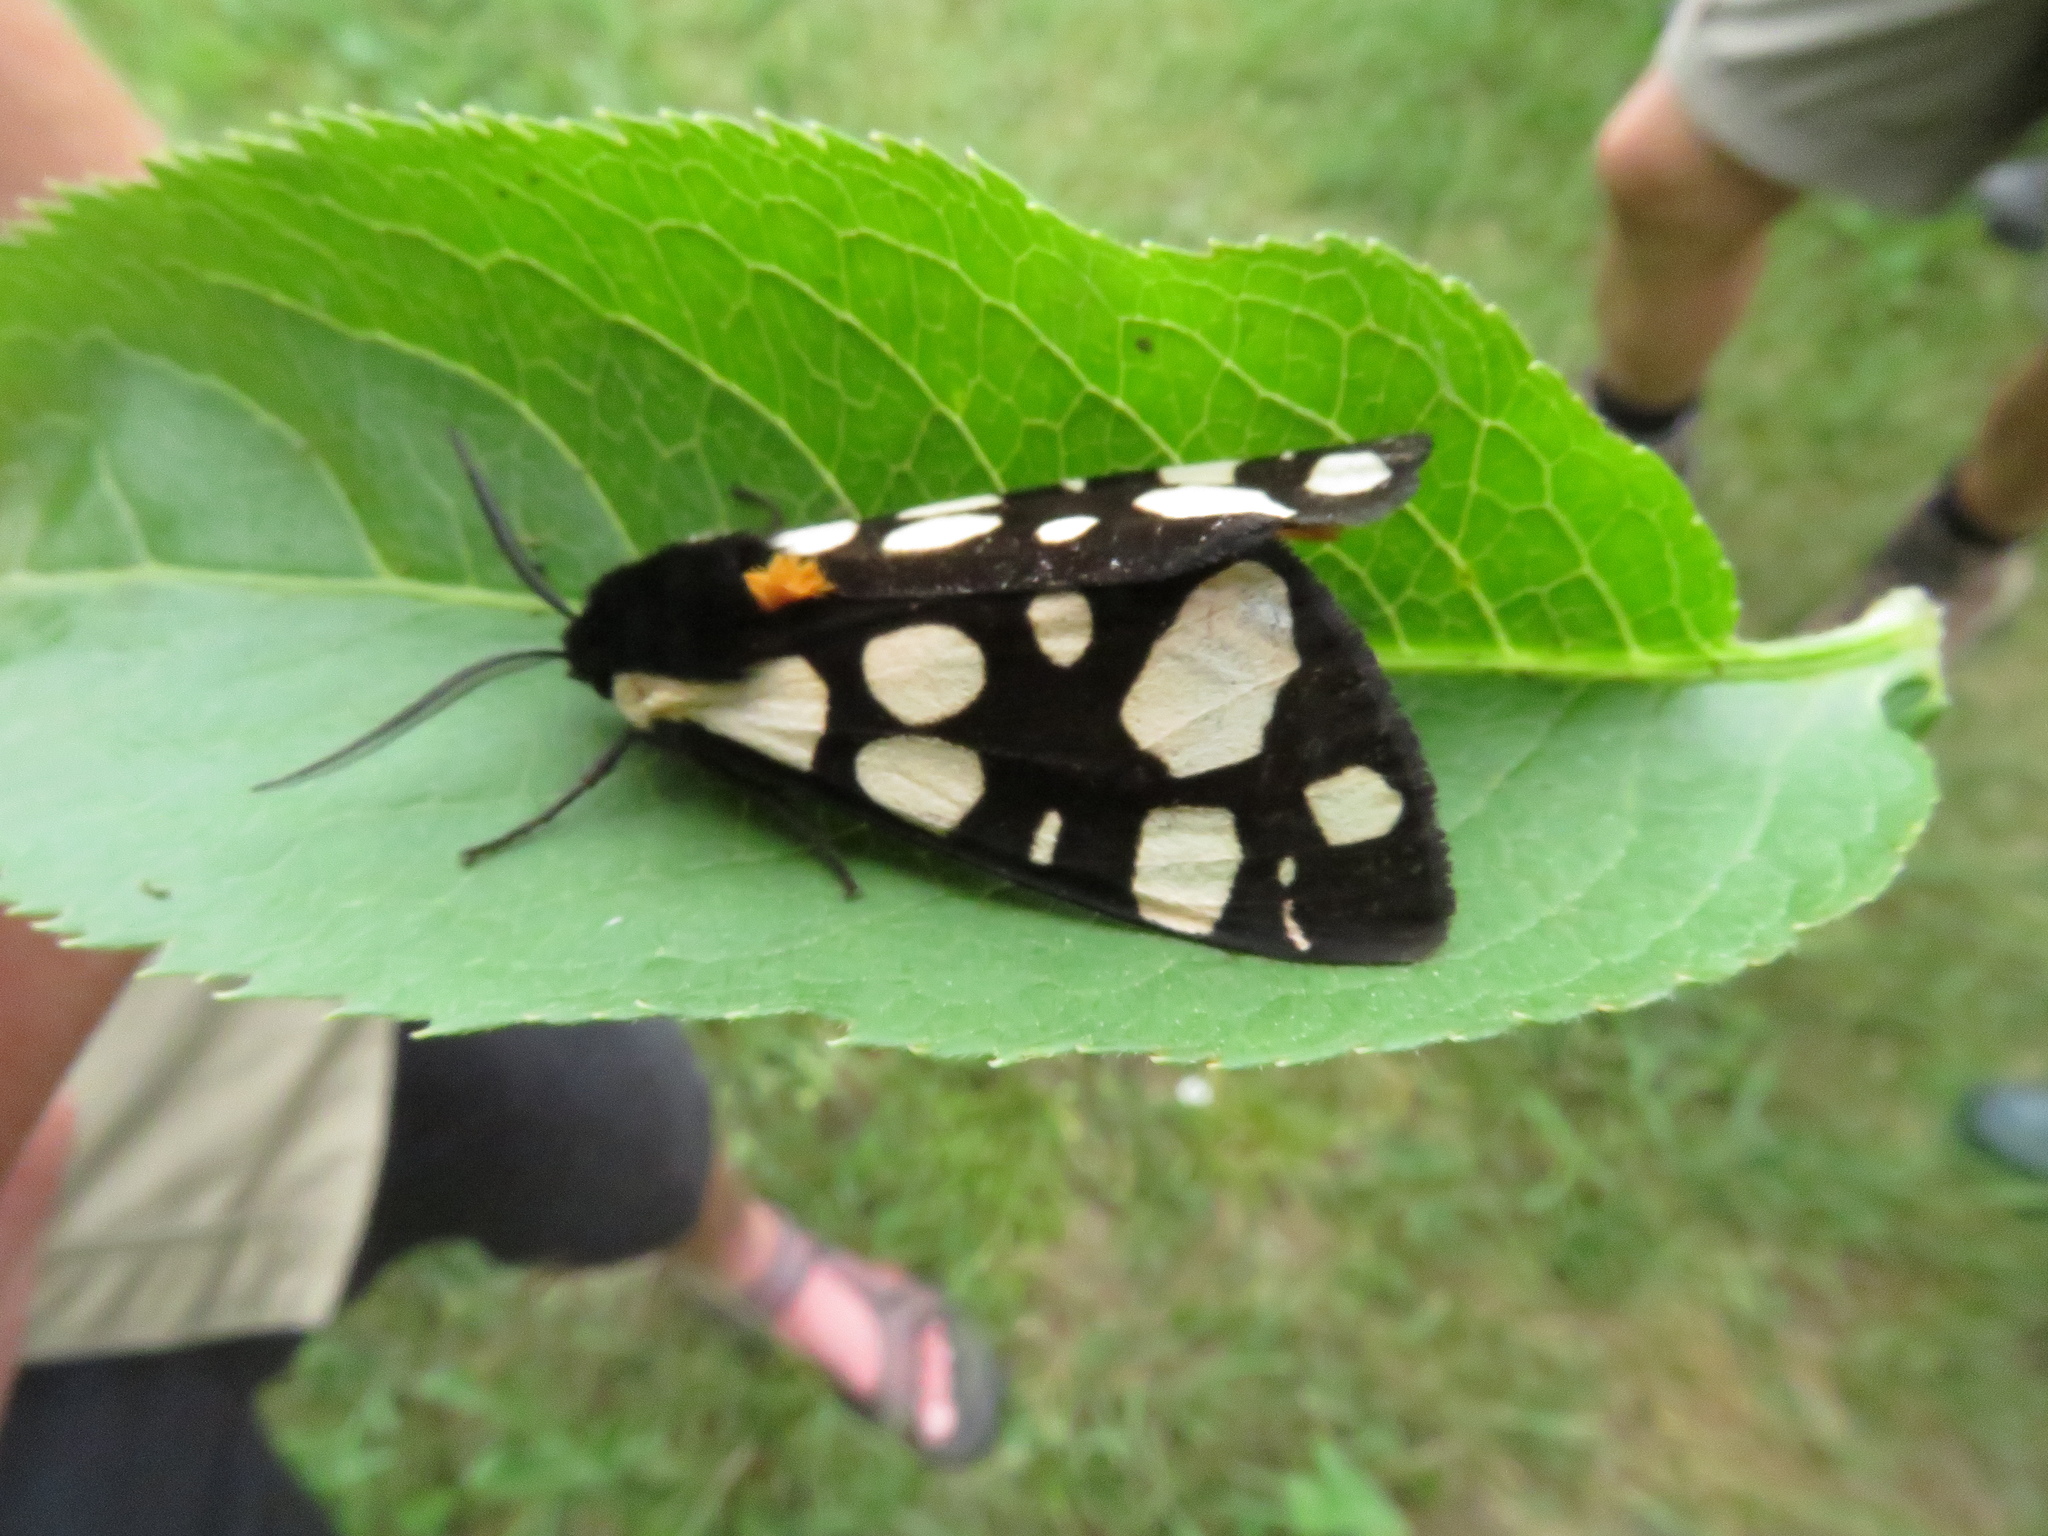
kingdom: Animalia
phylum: Arthropoda
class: Insecta
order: Lepidoptera
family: Erebidae
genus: Epicallia
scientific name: Epicallia villica
